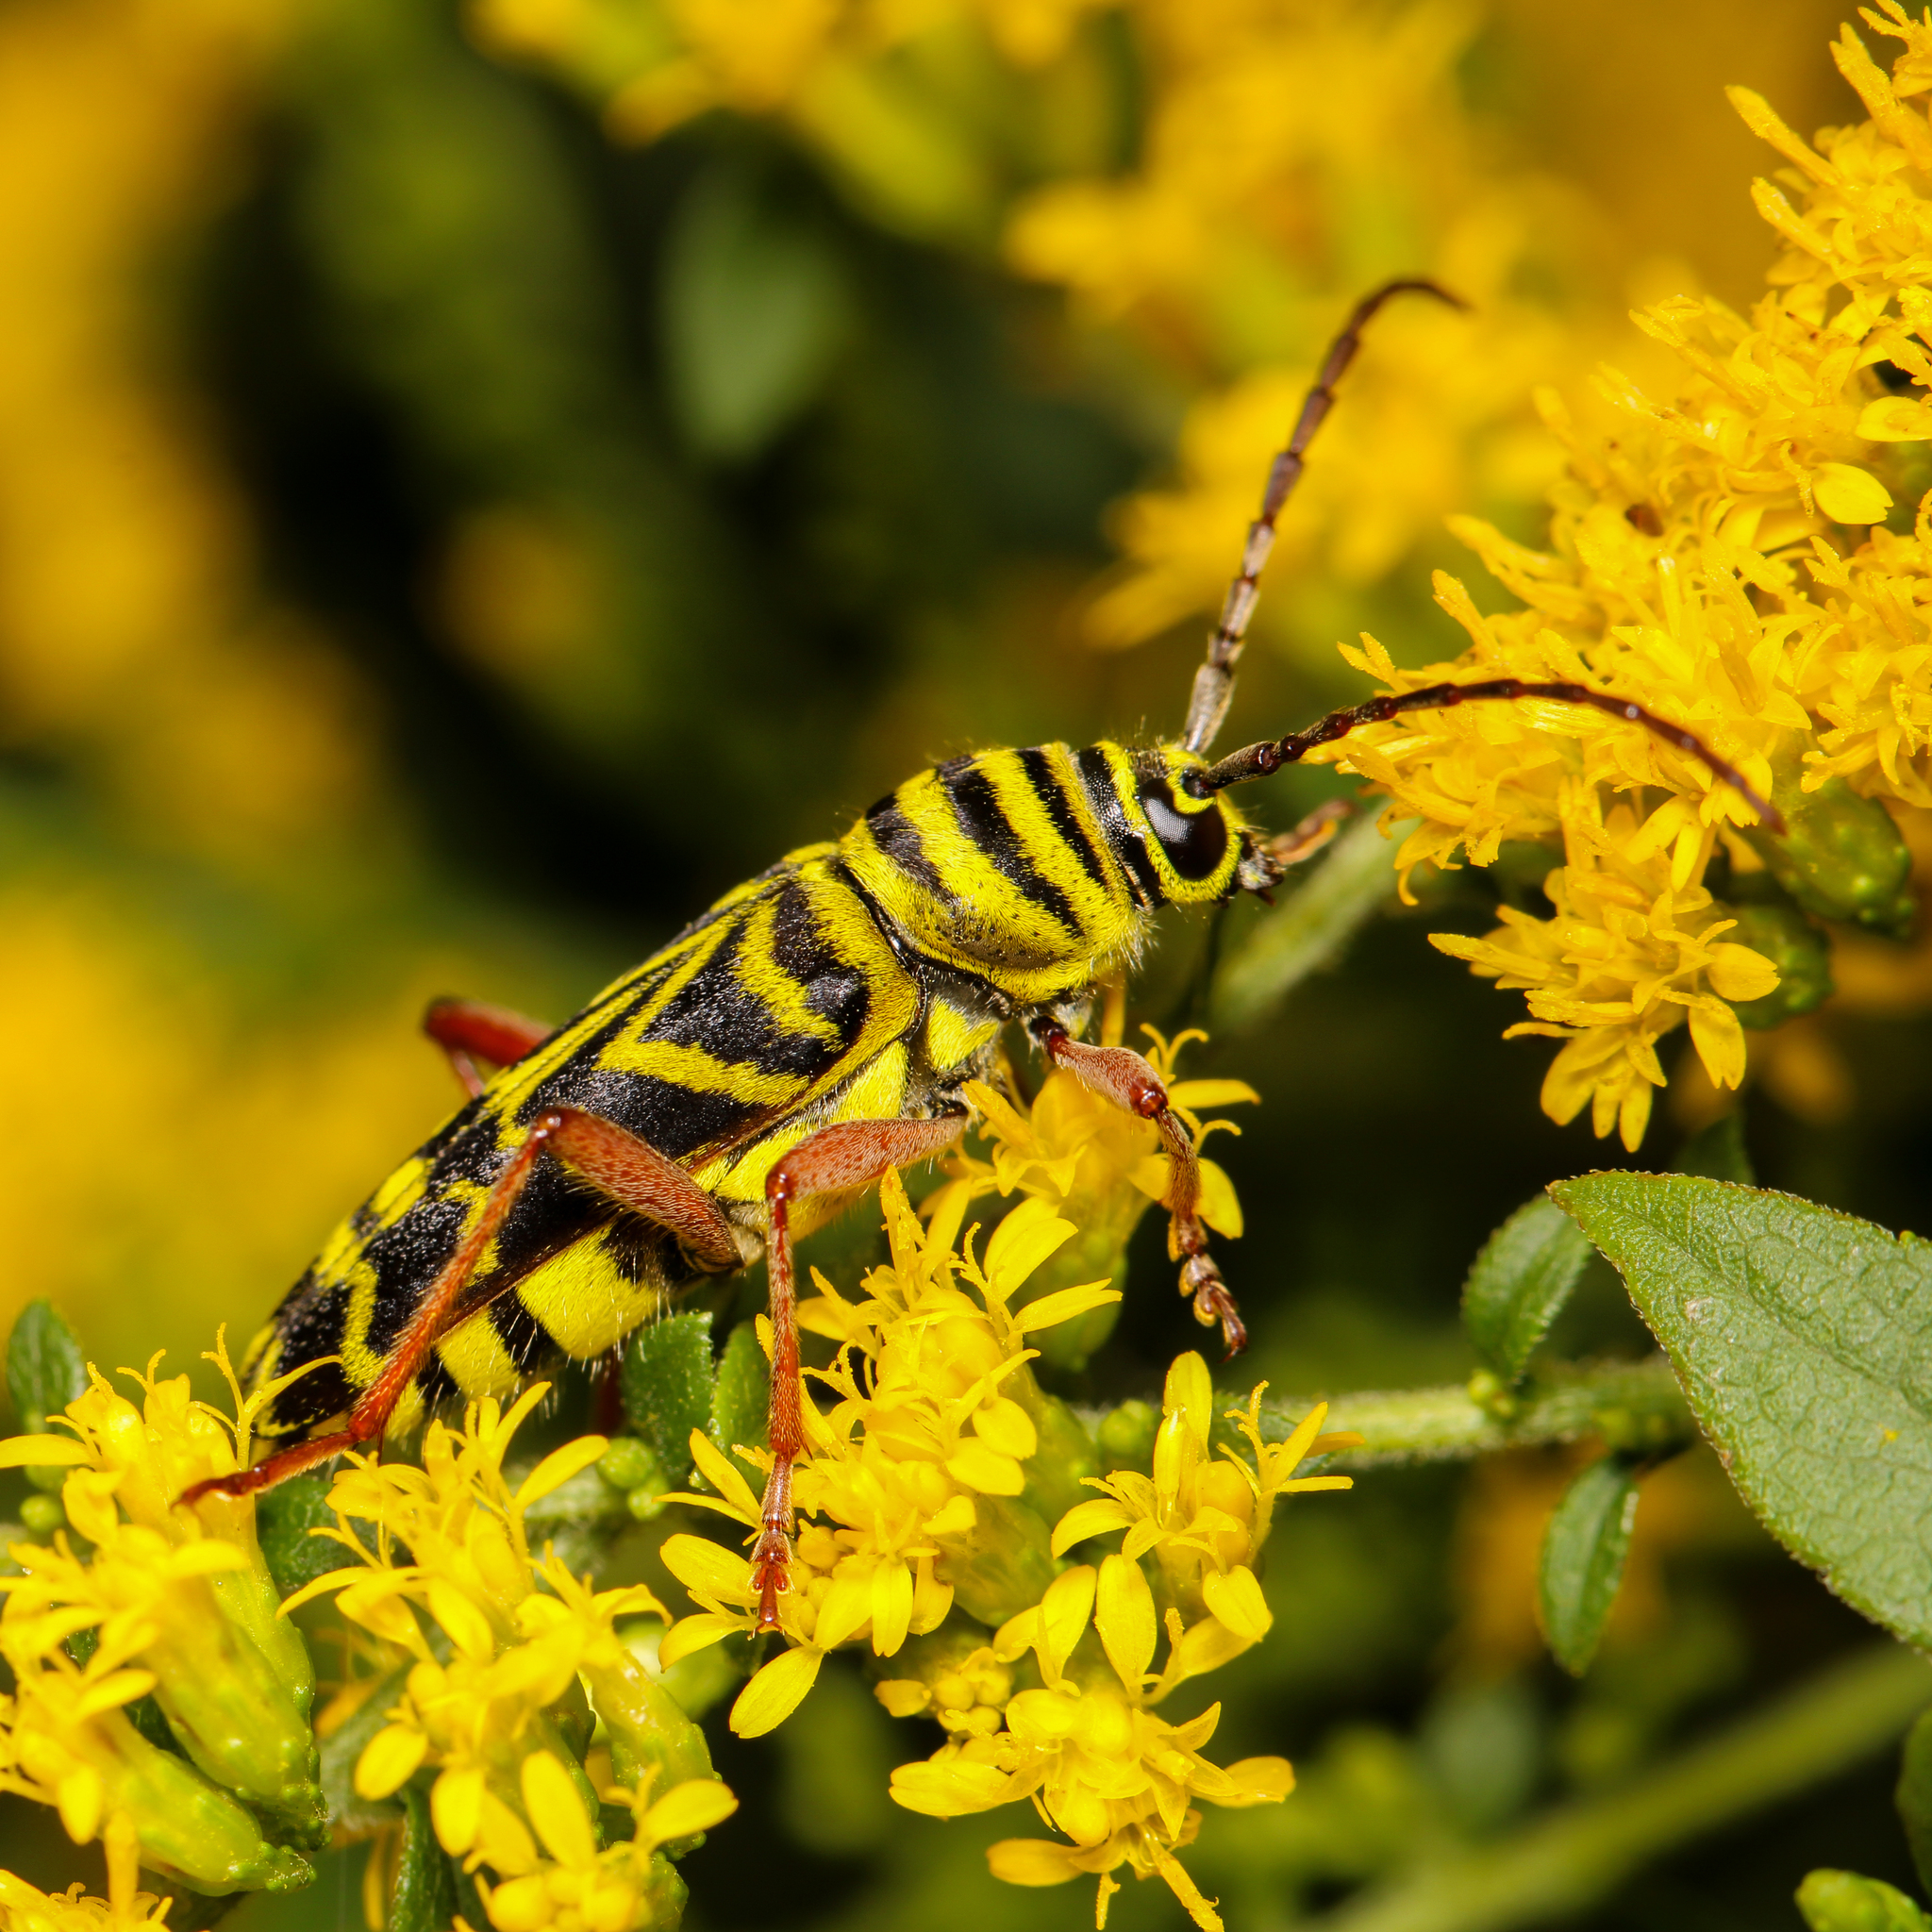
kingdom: Animalia
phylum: Arthropoda
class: Insecta
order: Coleoptera
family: Cerambycidae
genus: Megacyllene
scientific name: Megacyllene robiniae
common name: Locust borer
